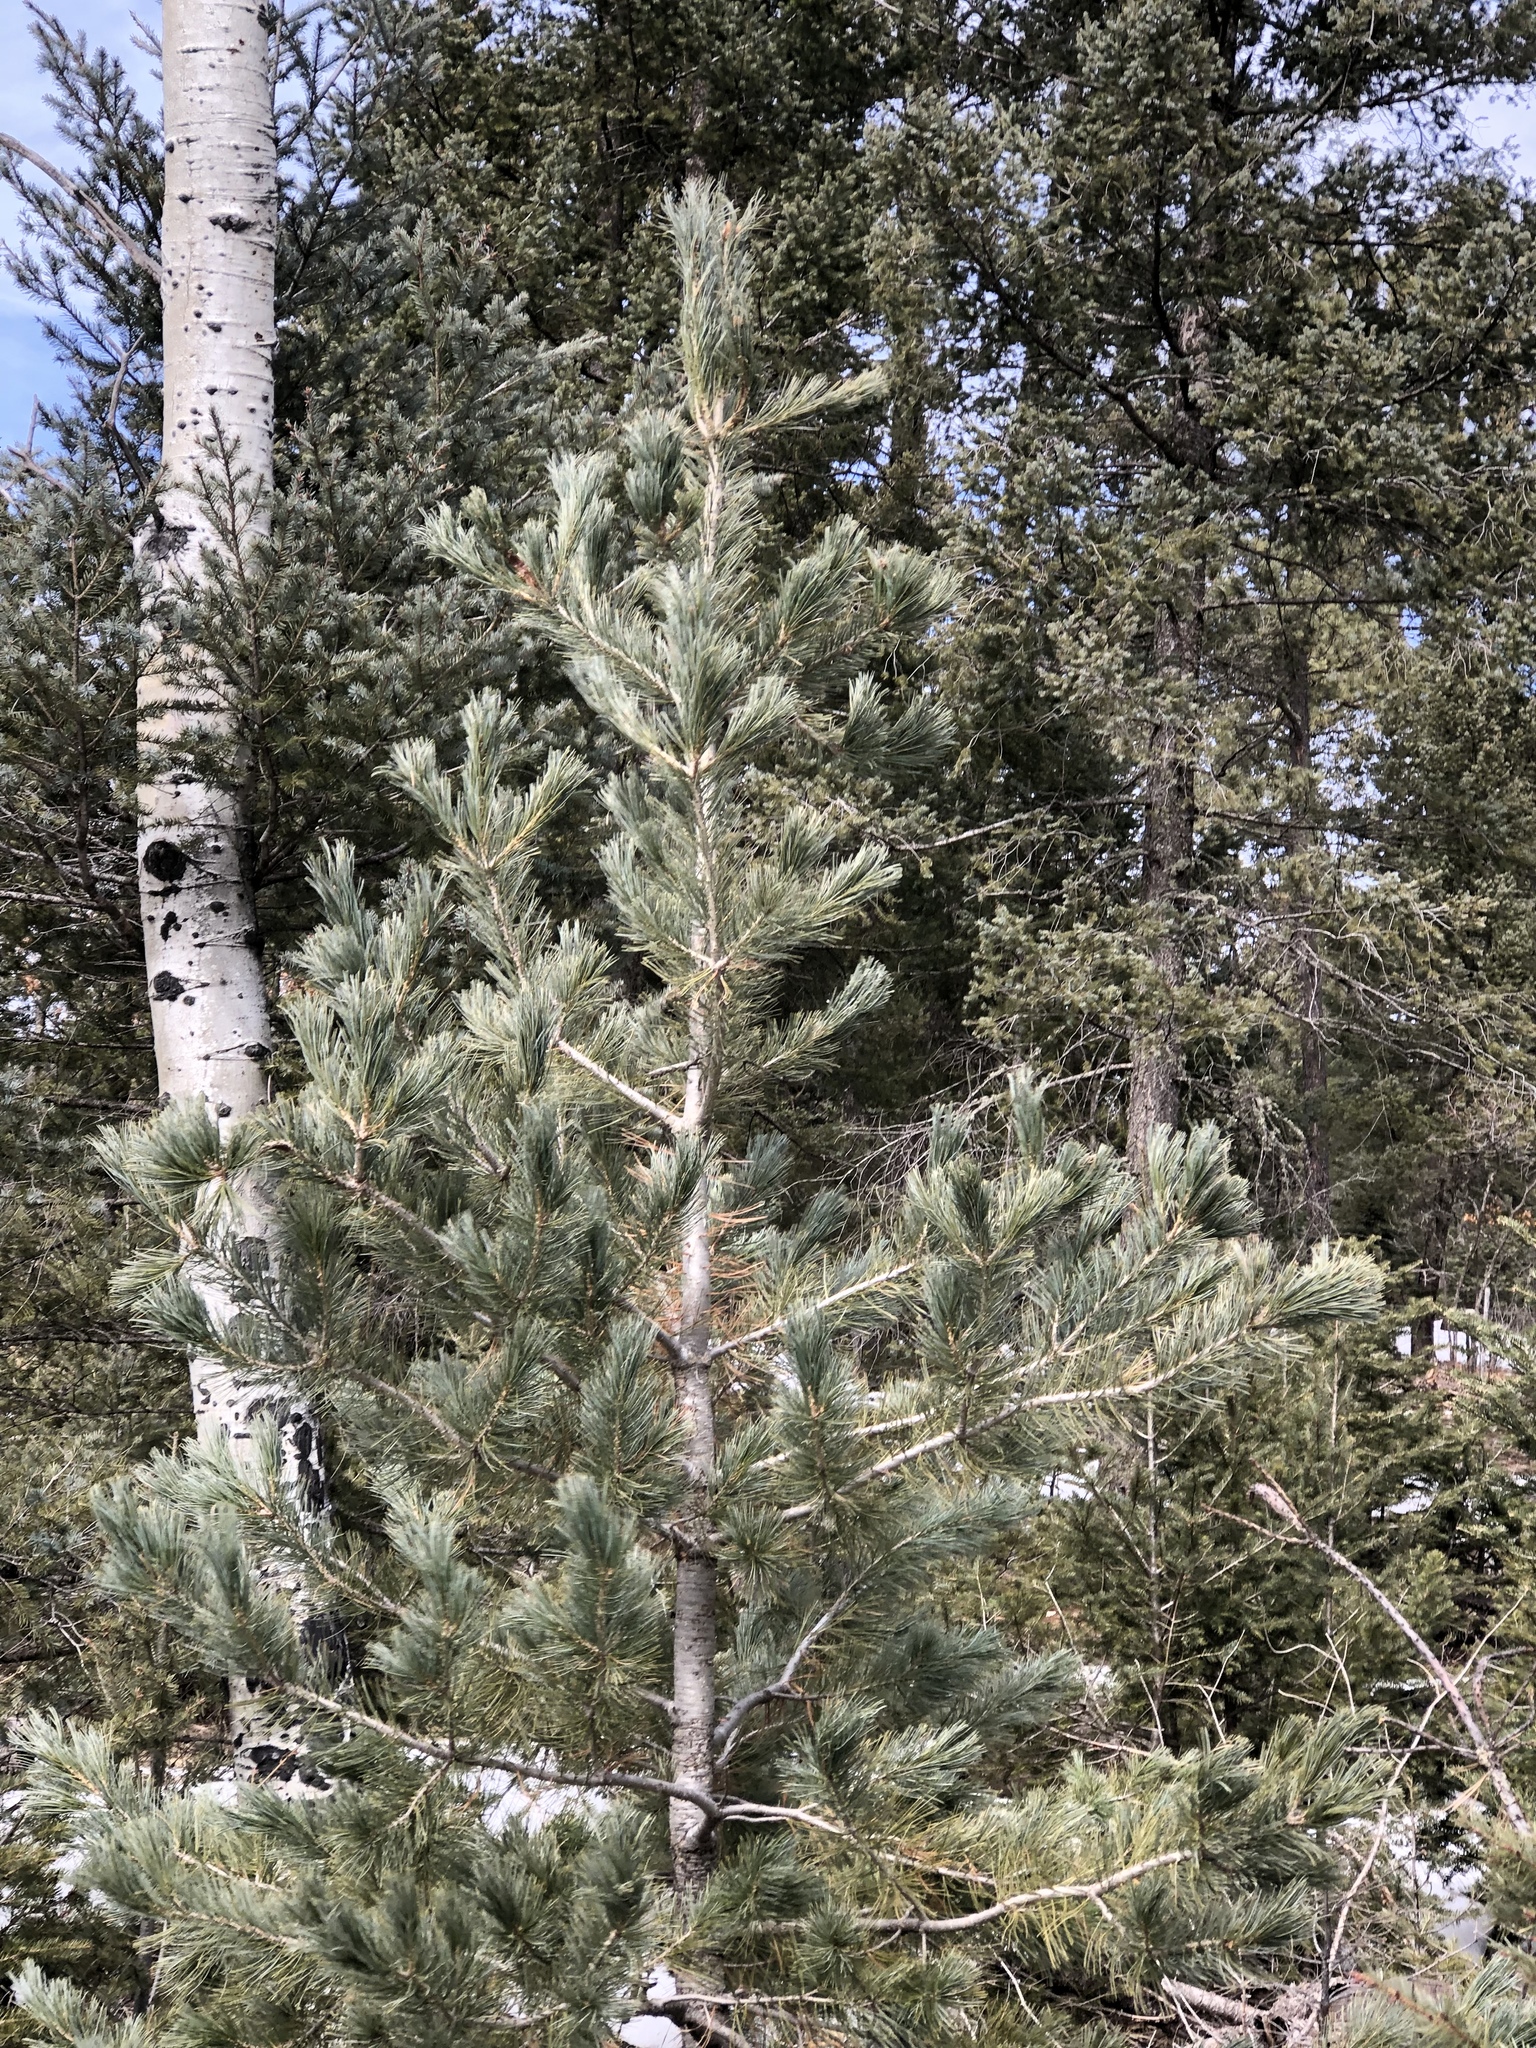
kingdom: Plantae
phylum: Tracheophyta
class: Pinopsida
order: Pinales
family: Pinaceae
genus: Pinus
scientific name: Pinus strobiformis
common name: Southwestern white pine
